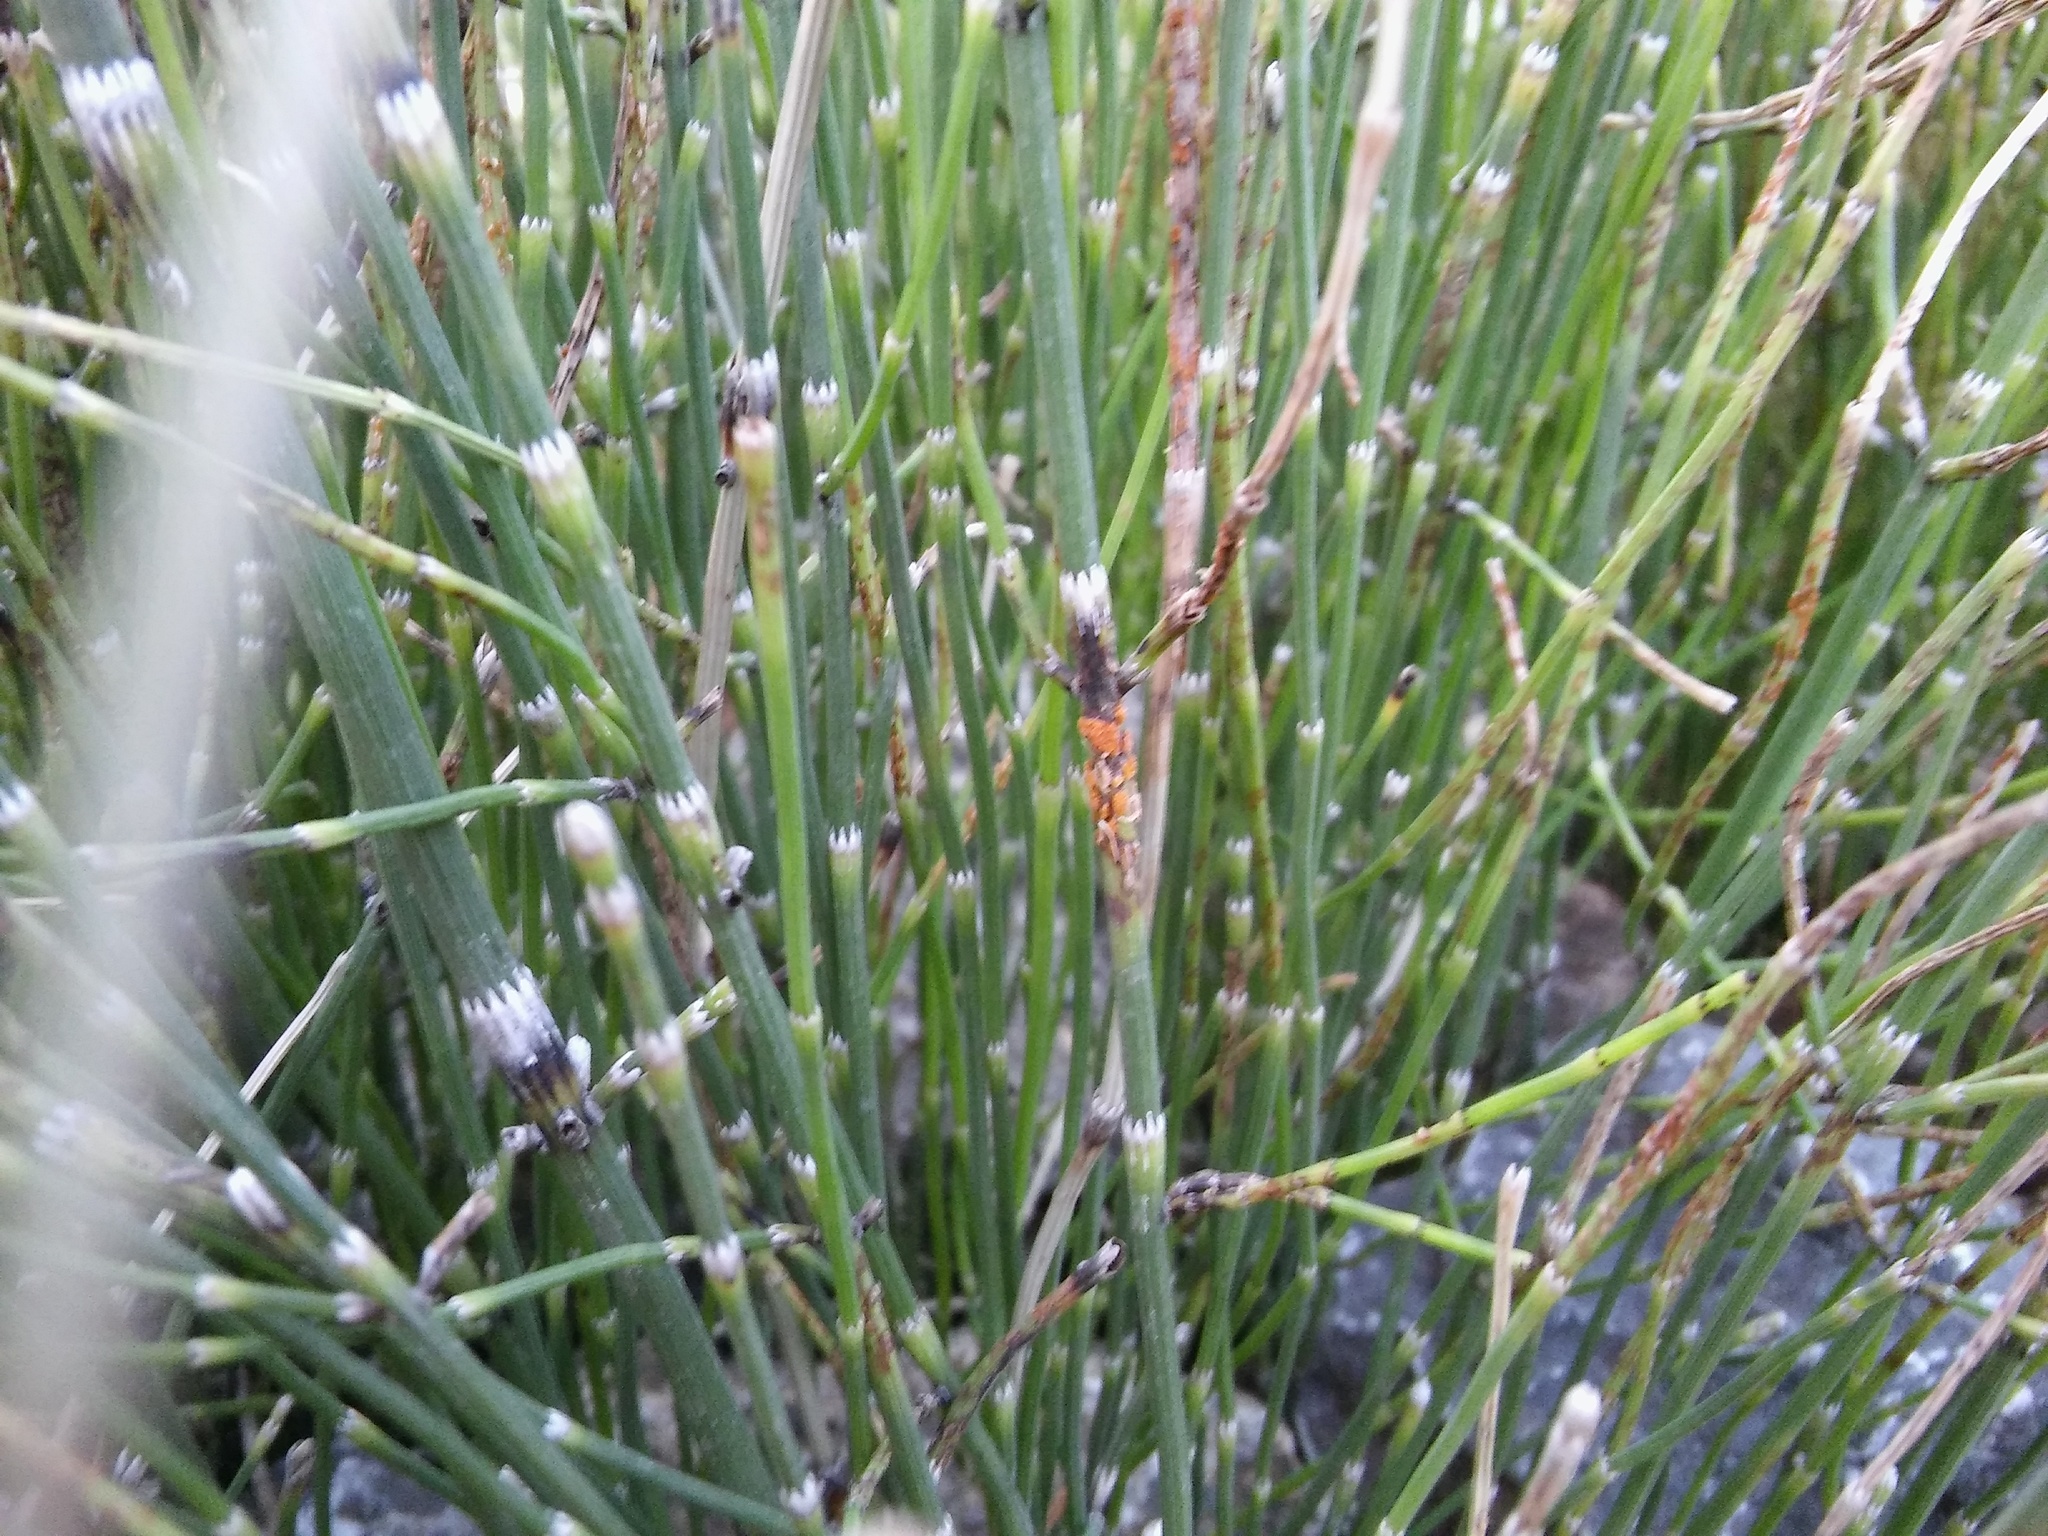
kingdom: Plantae
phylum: Tracheophyta
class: Polypodiopsida
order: Equisetales
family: Equisetaceae
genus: Equisetum
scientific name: Equisetum ramosissimum
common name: Branched horsetail
